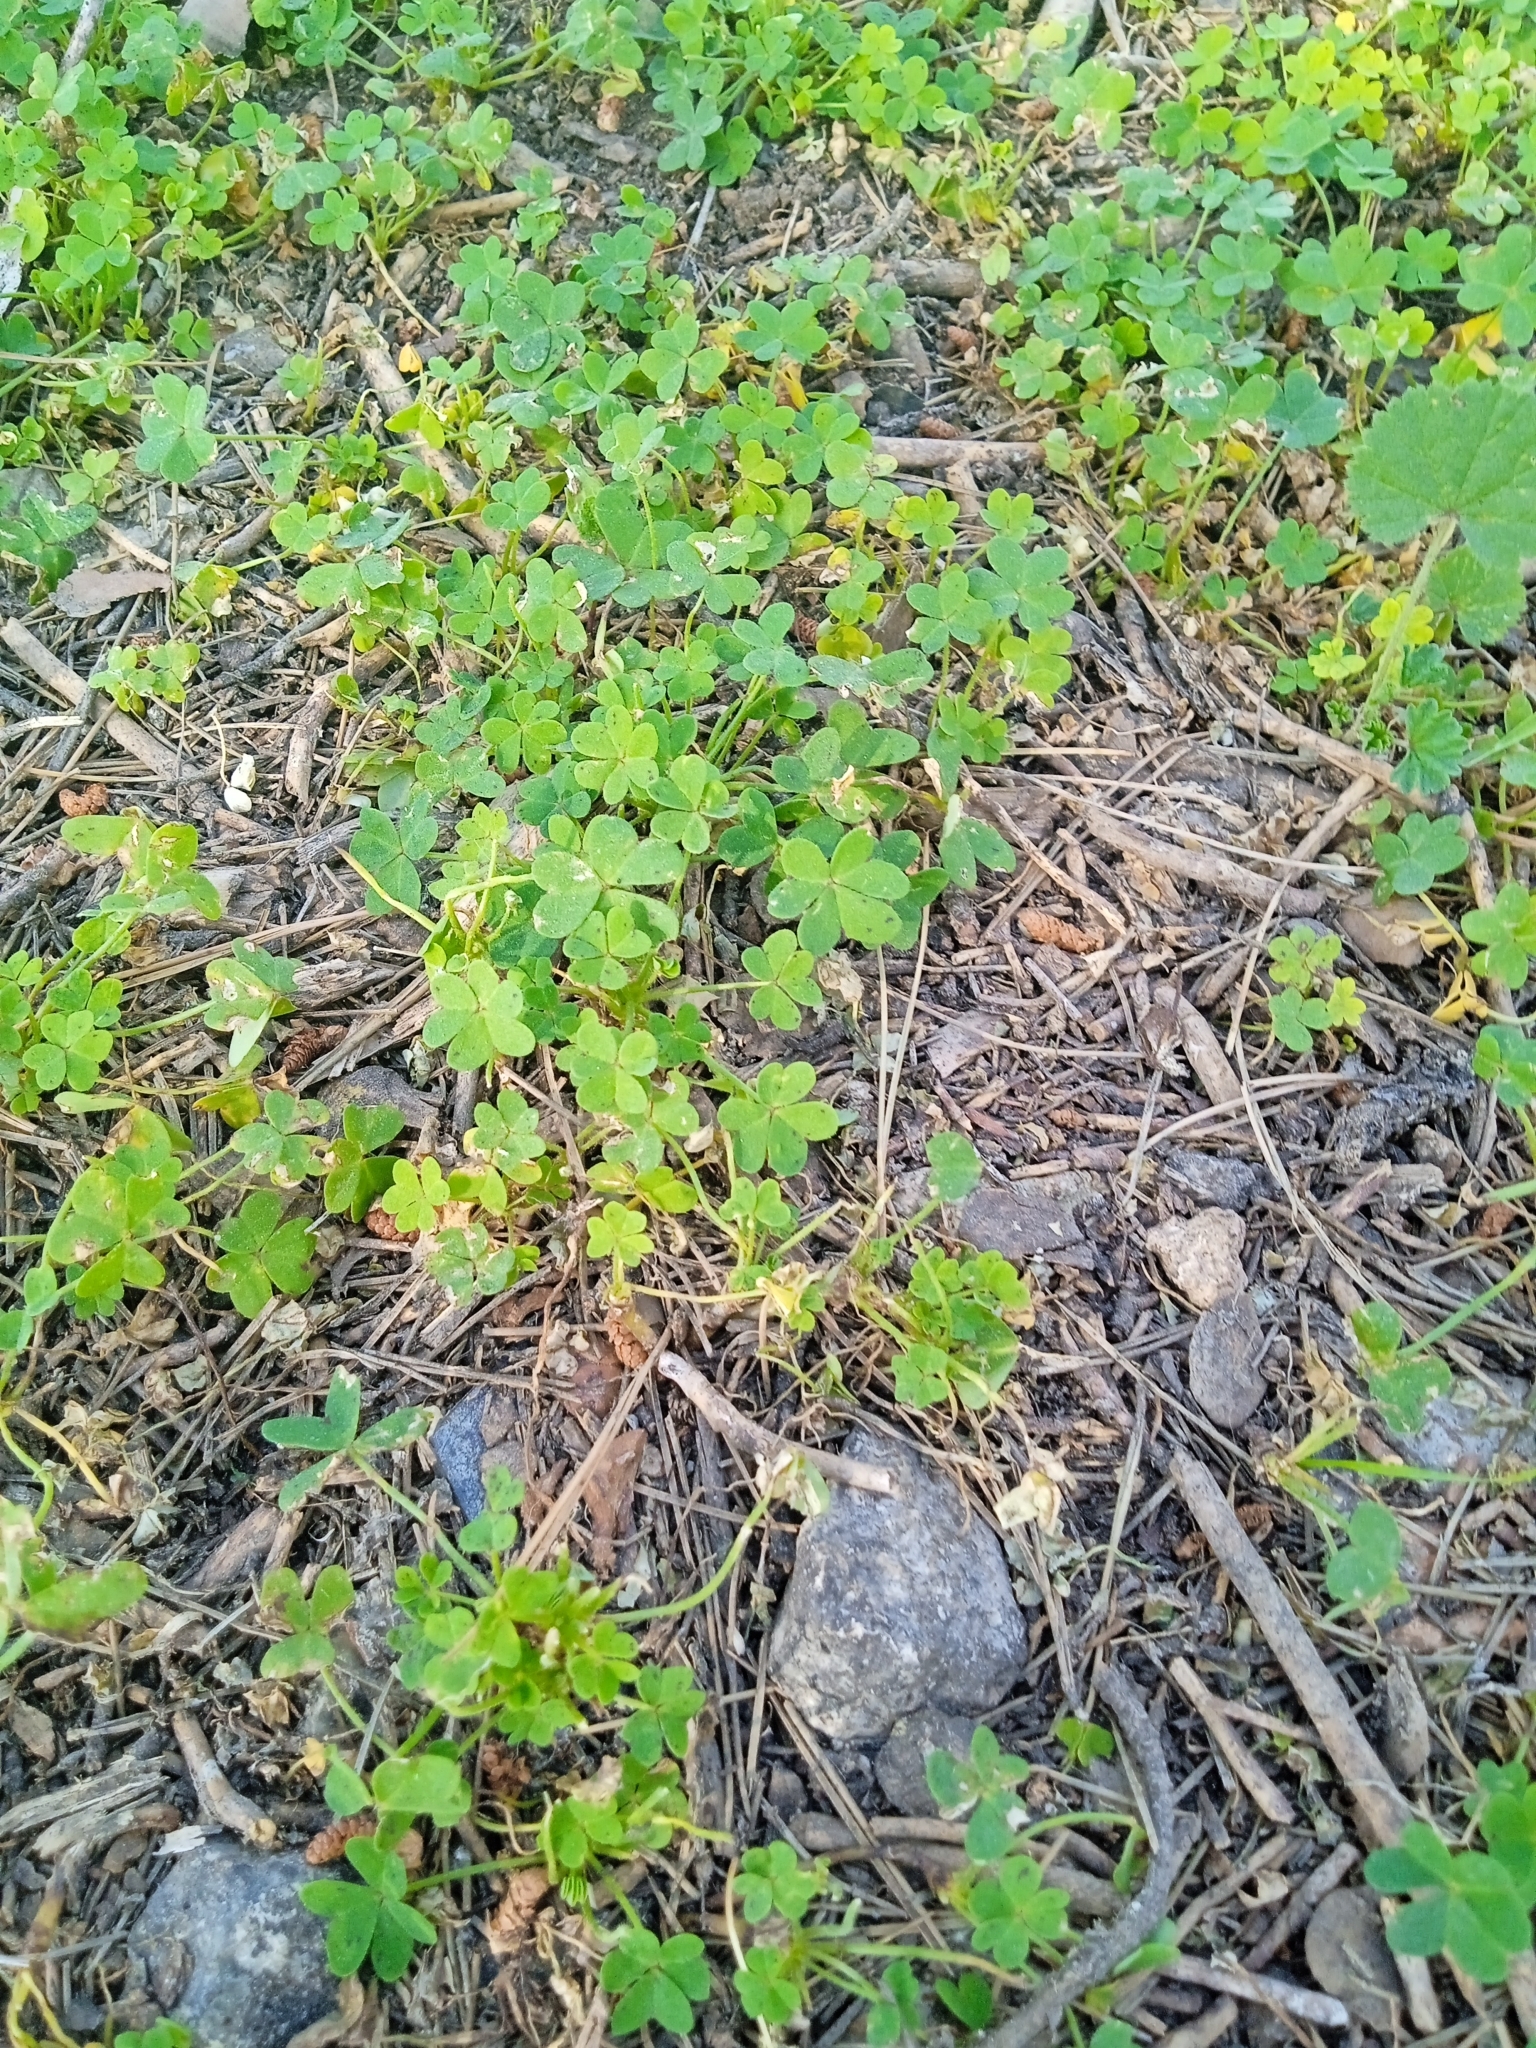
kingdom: Plantae
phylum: Tracheophyta
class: Magnoliopsida
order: Oxalidales
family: Oxalidaceae
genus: Oxalis
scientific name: Oxalis pes-caprae
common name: Bermuda-buttercup
